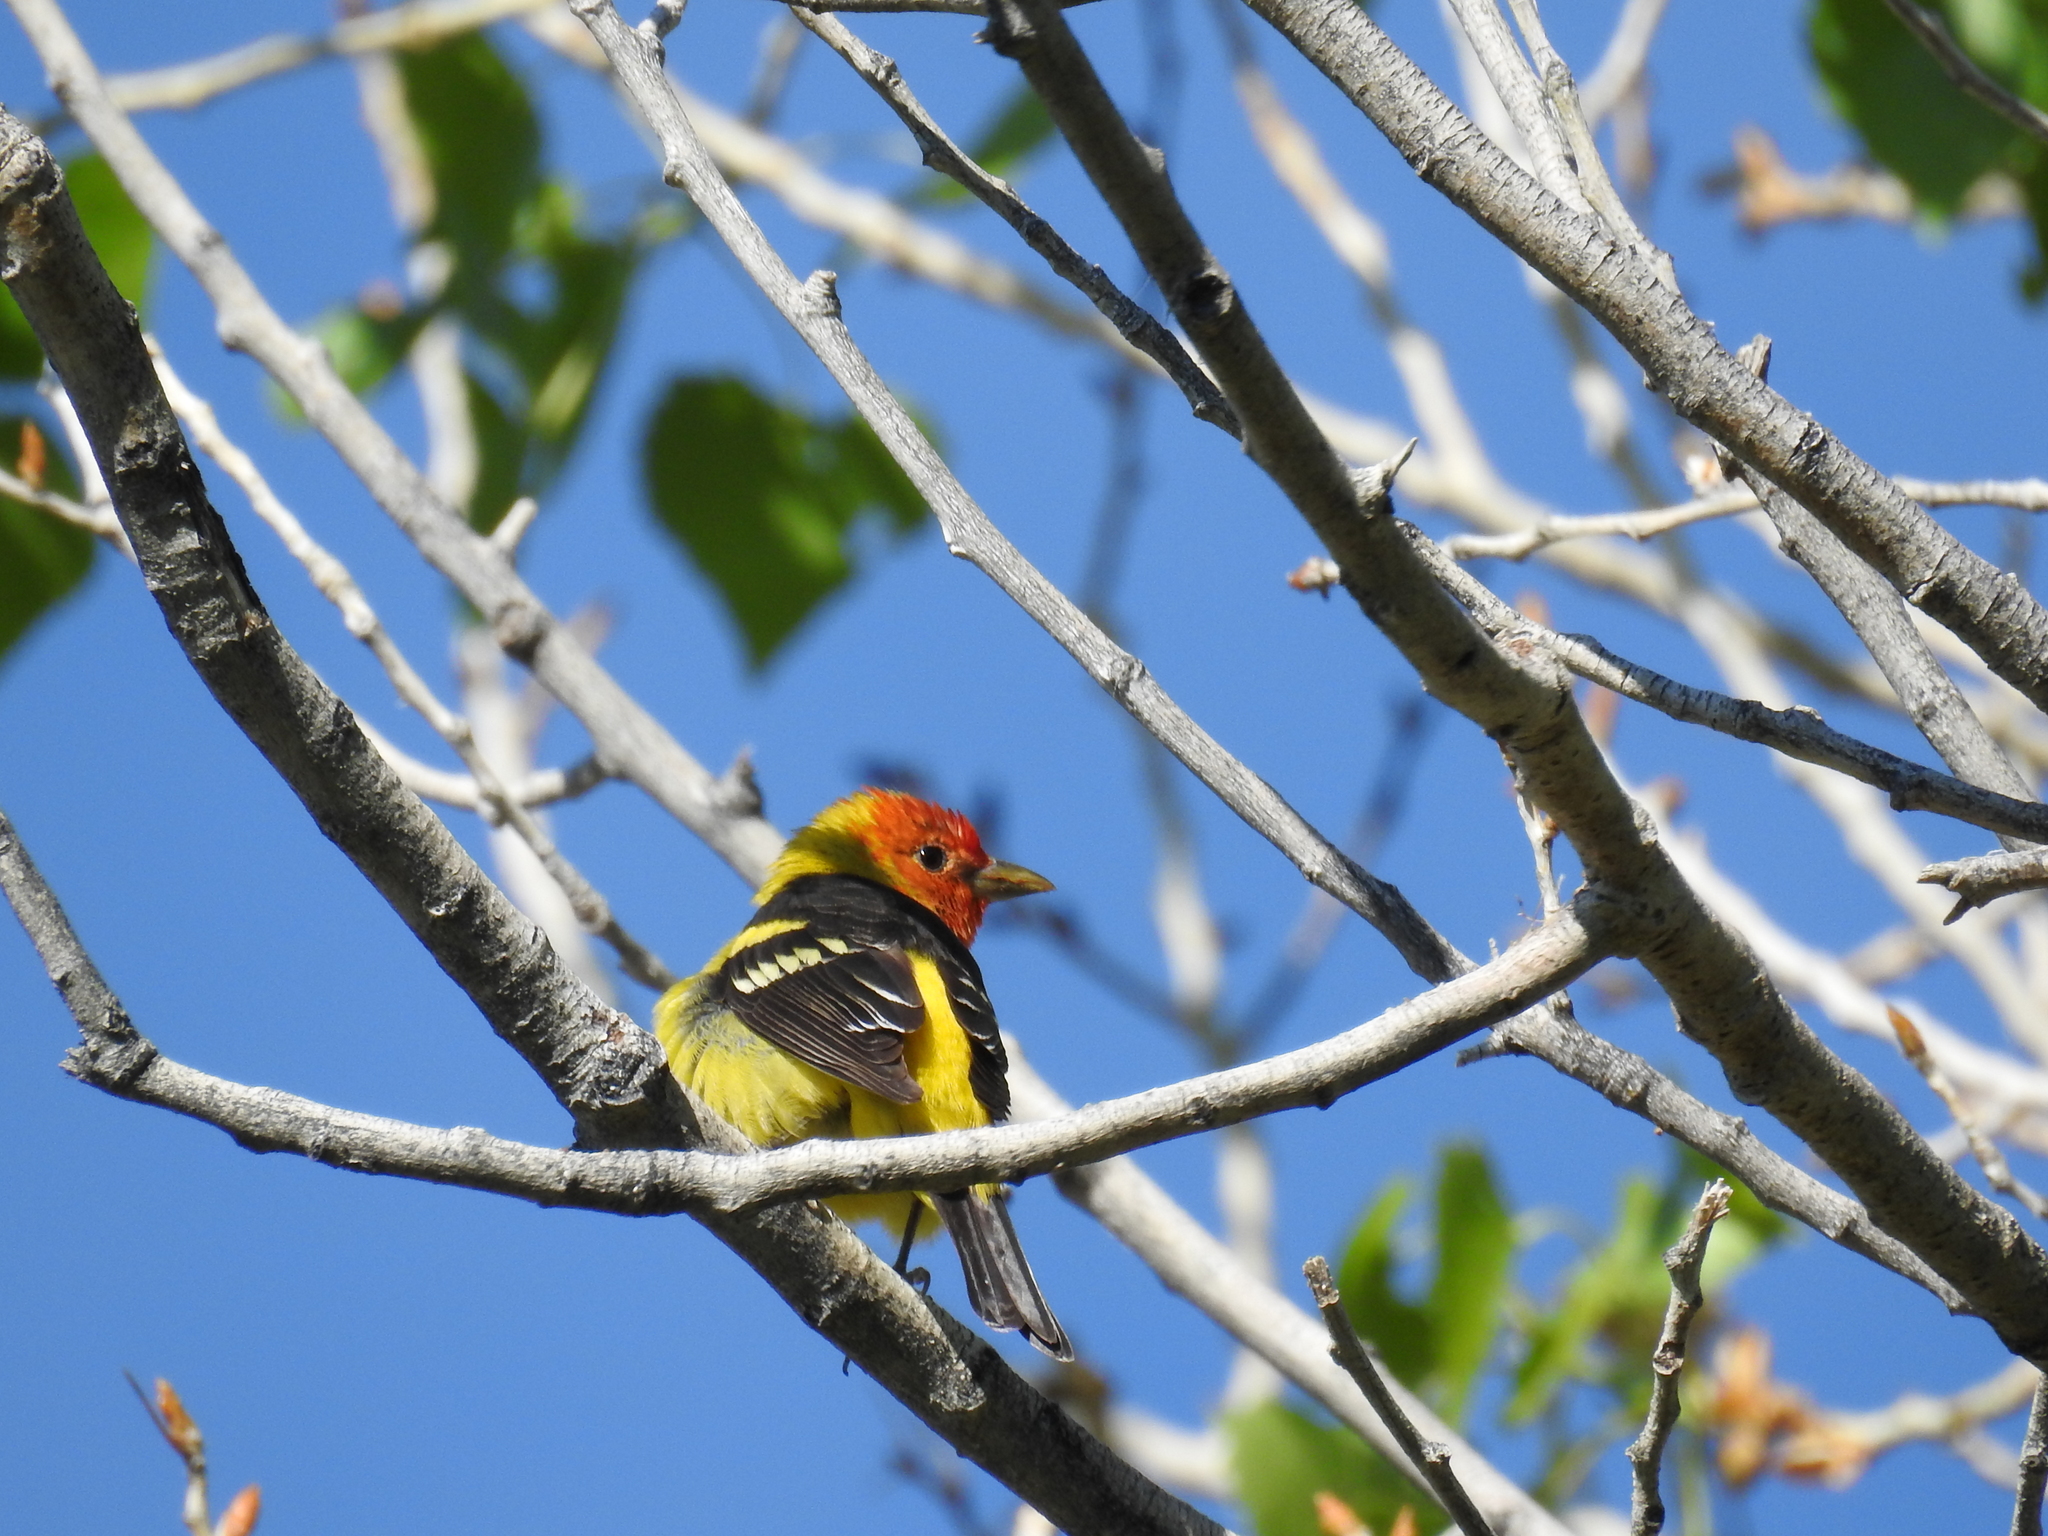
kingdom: Animalia
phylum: Chordata
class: Aves
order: Passeriformes
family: Cardinalidae
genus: Piranga
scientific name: Piranga ludoviciana
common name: Western tanager
